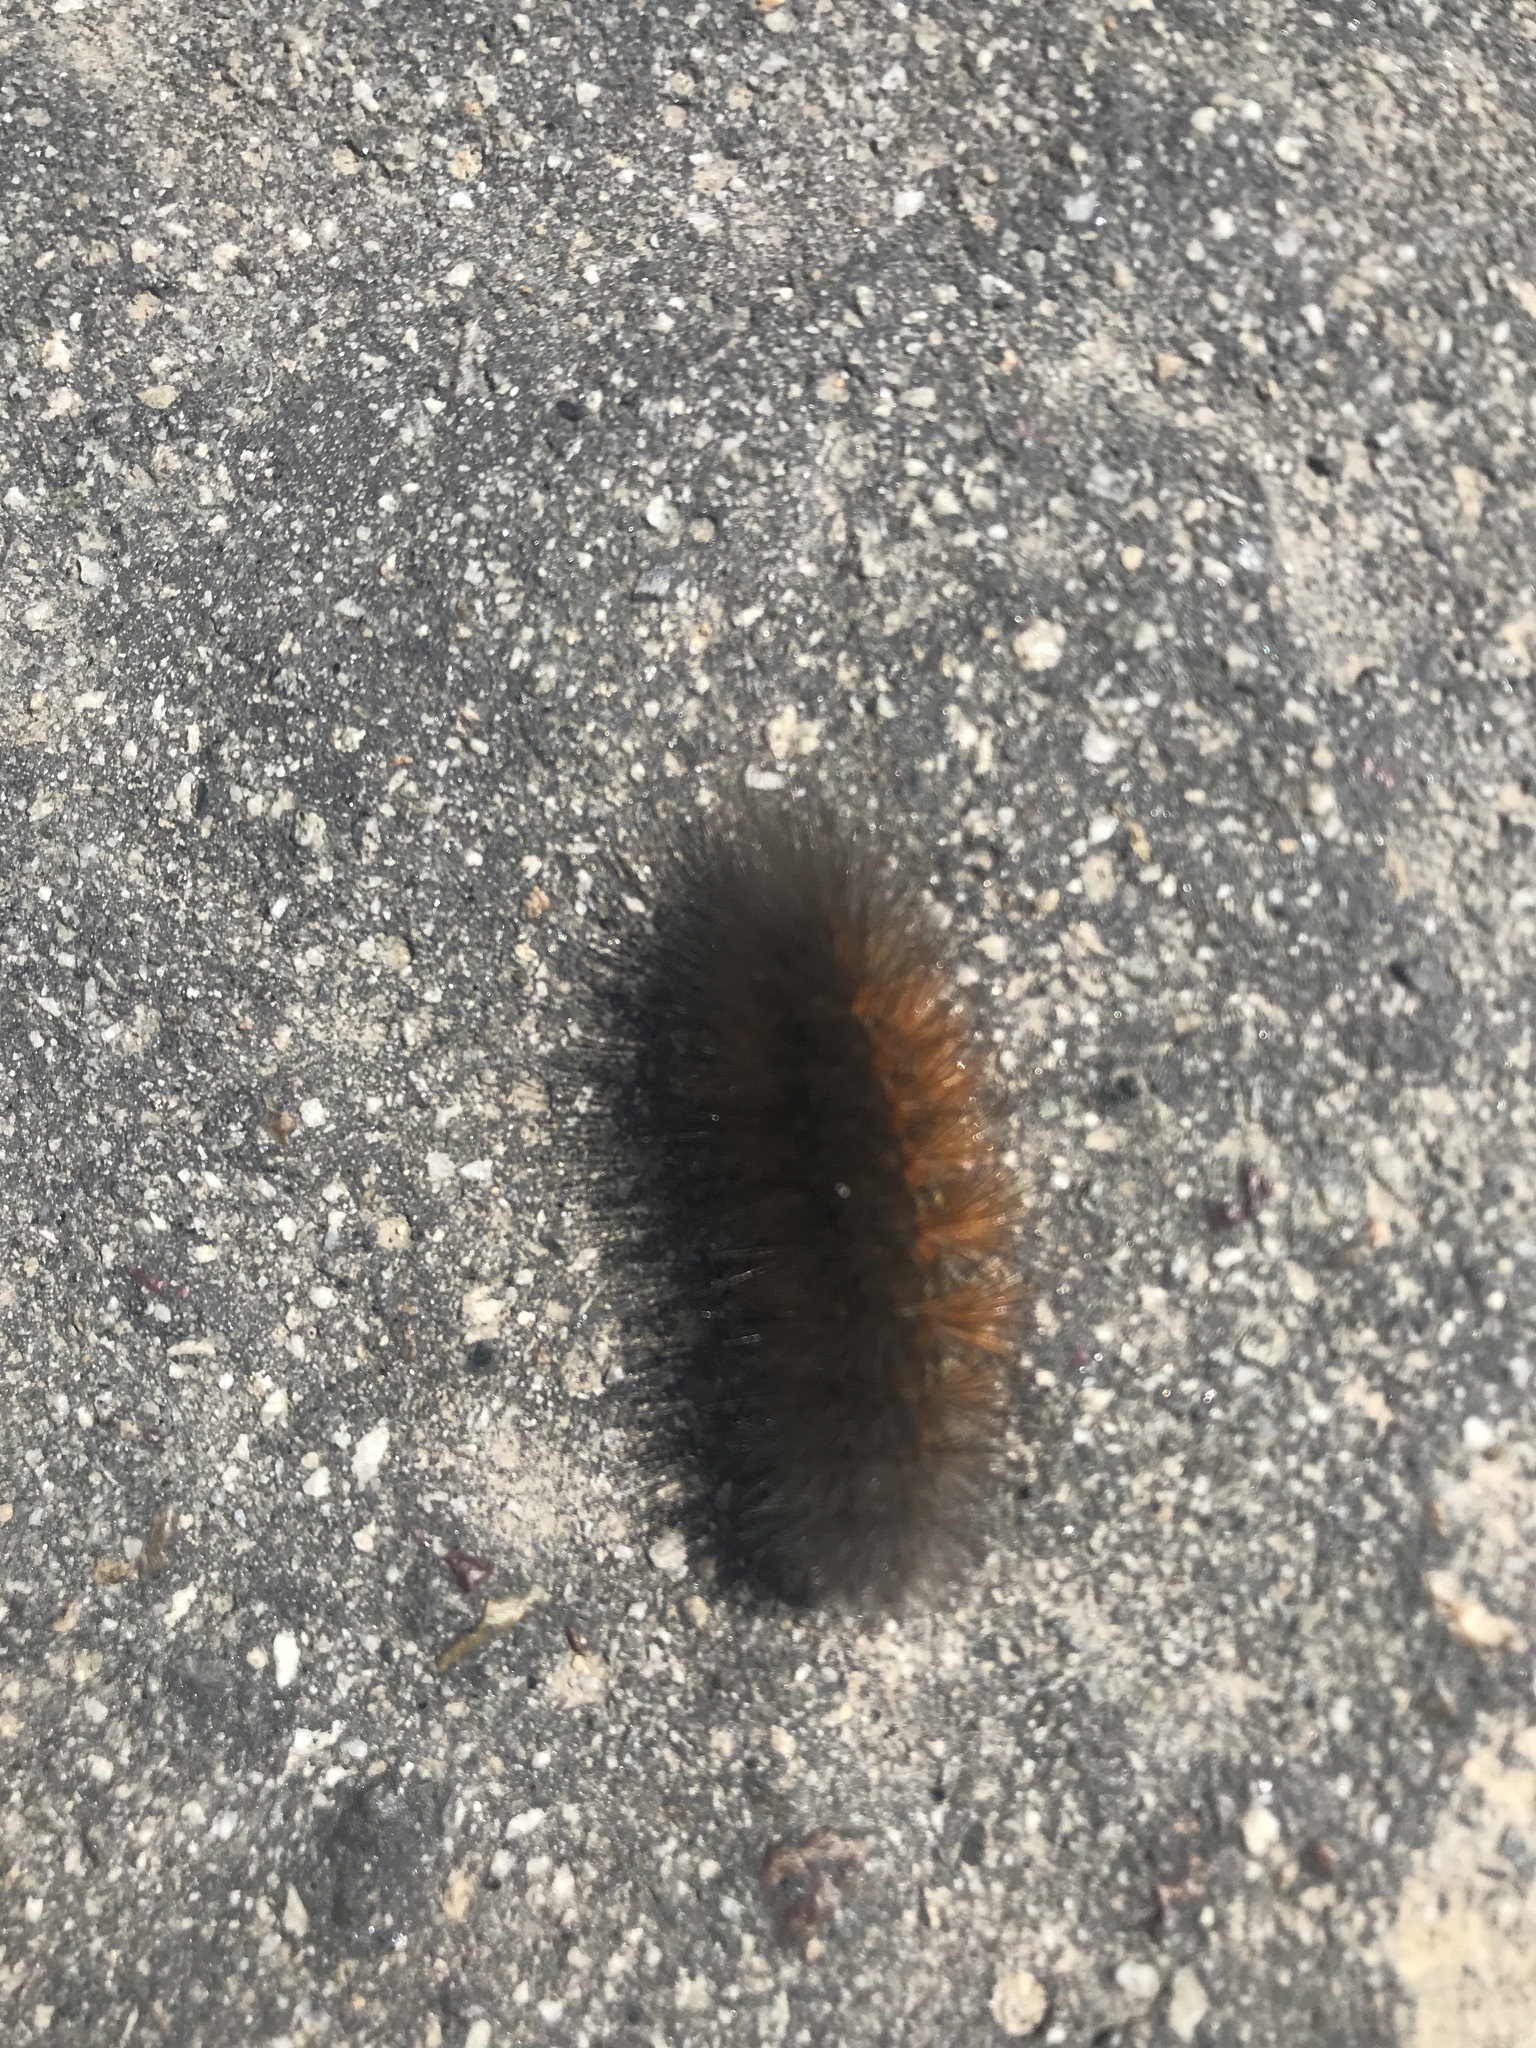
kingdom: Animalia
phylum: Arthropoda
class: Insecta
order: Lepidoptera
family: Erebidae
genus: Estigmene
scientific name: Estigmene acrea
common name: Salt marsh moth
